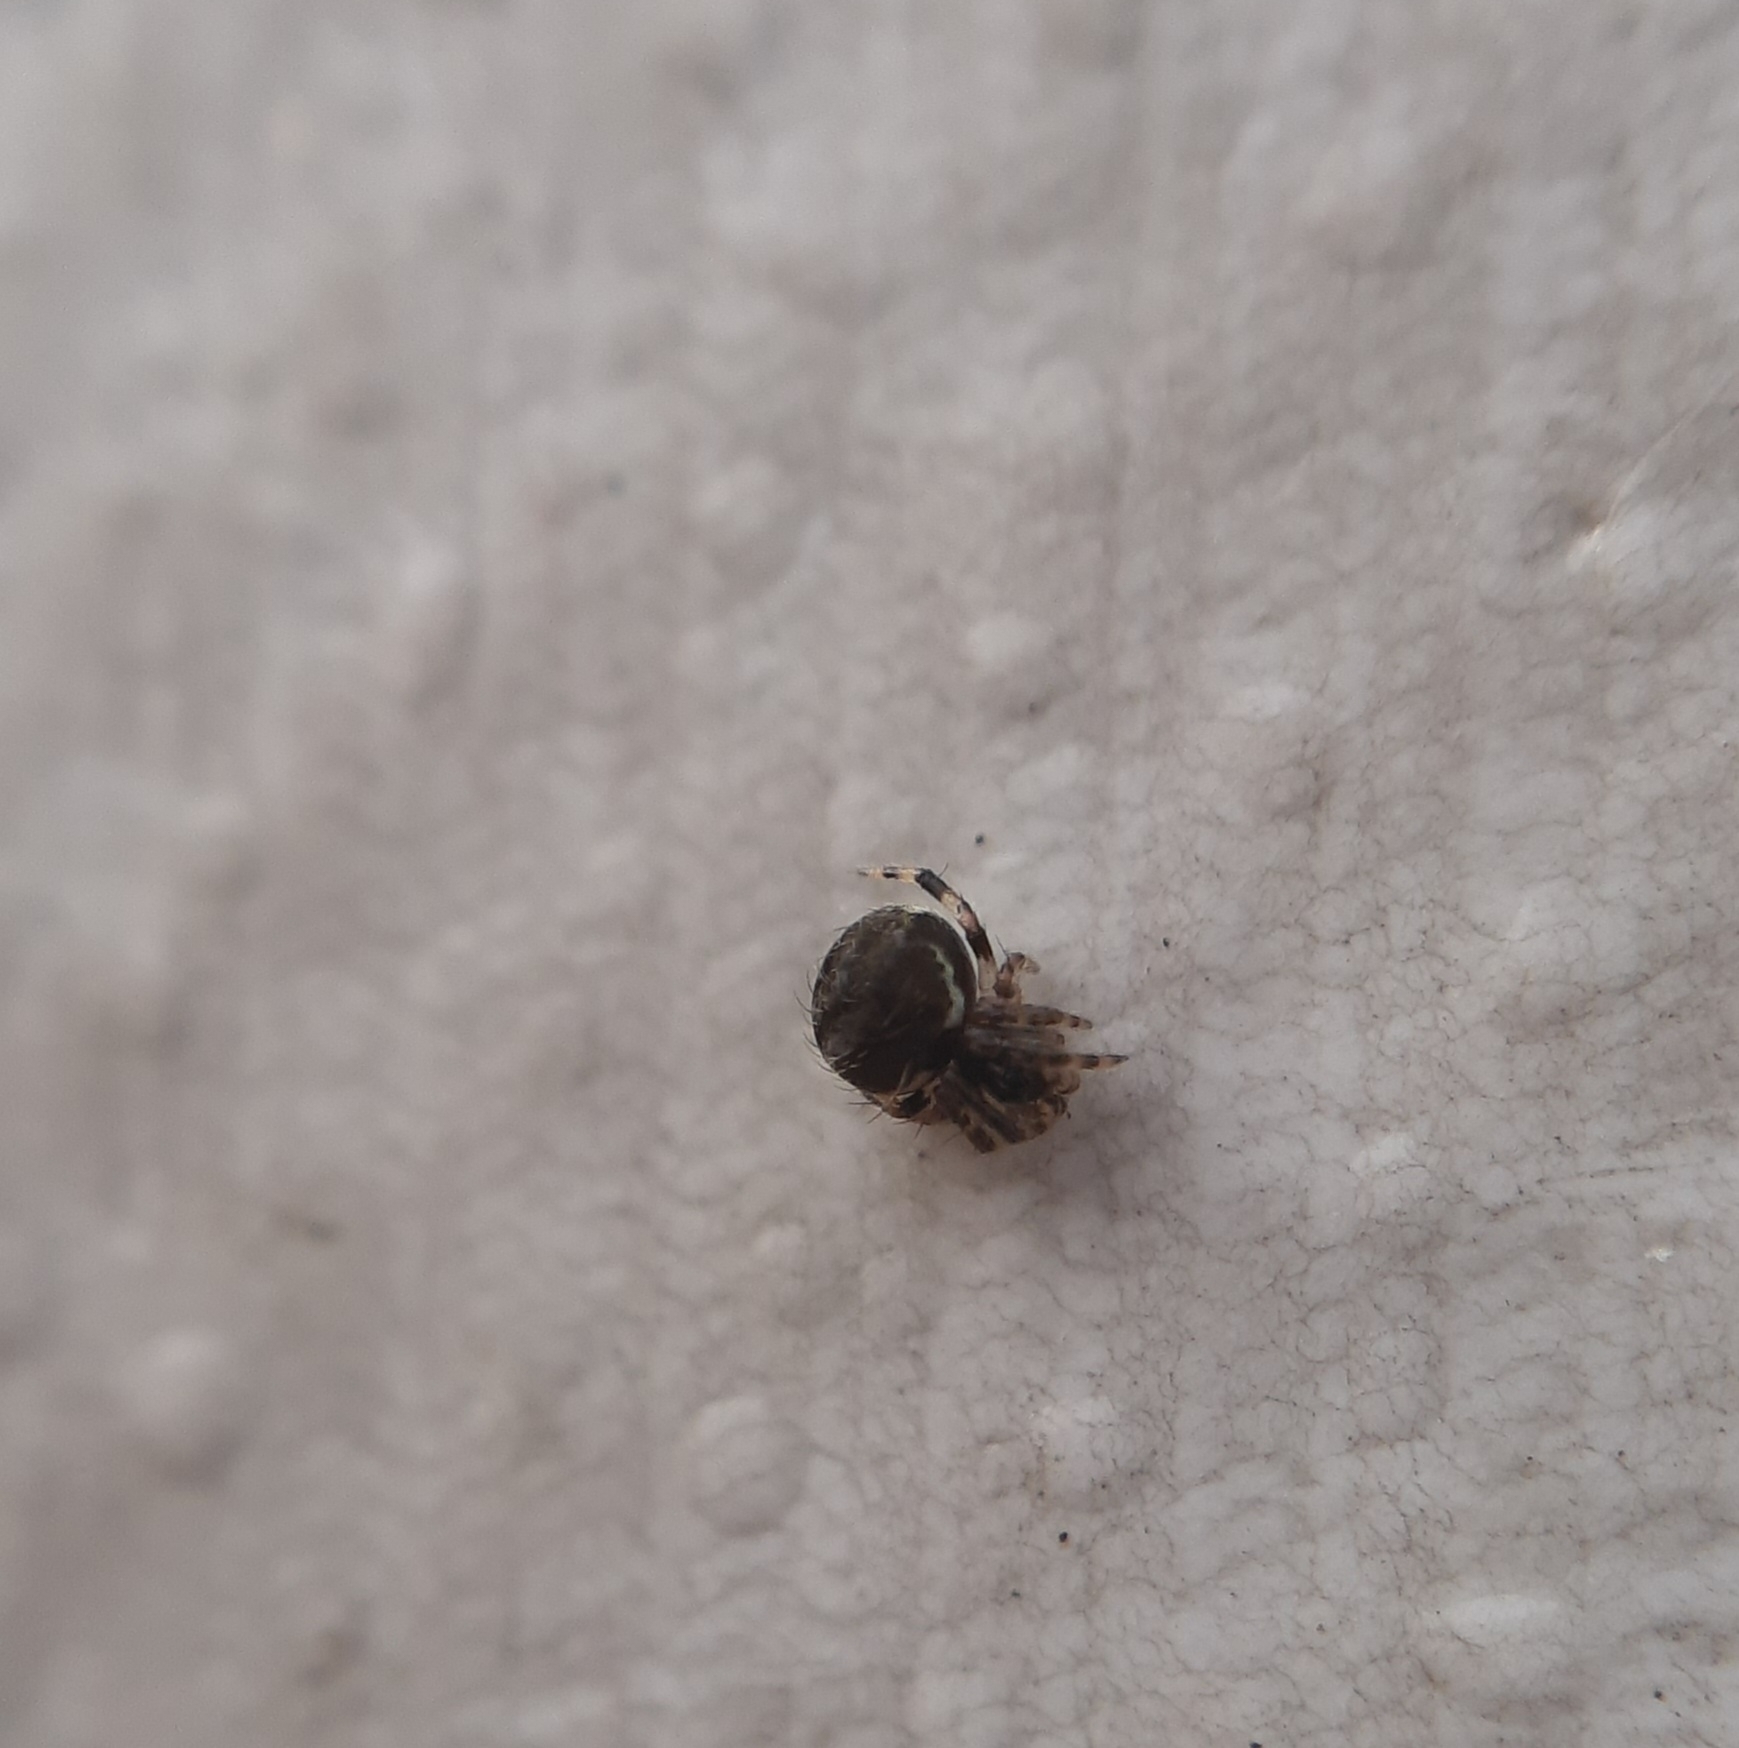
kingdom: Animalia
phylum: Arthropoda
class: Arachnida
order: Araneae
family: Theridiidae
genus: Dipoena
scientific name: Dipoena melanogaster
